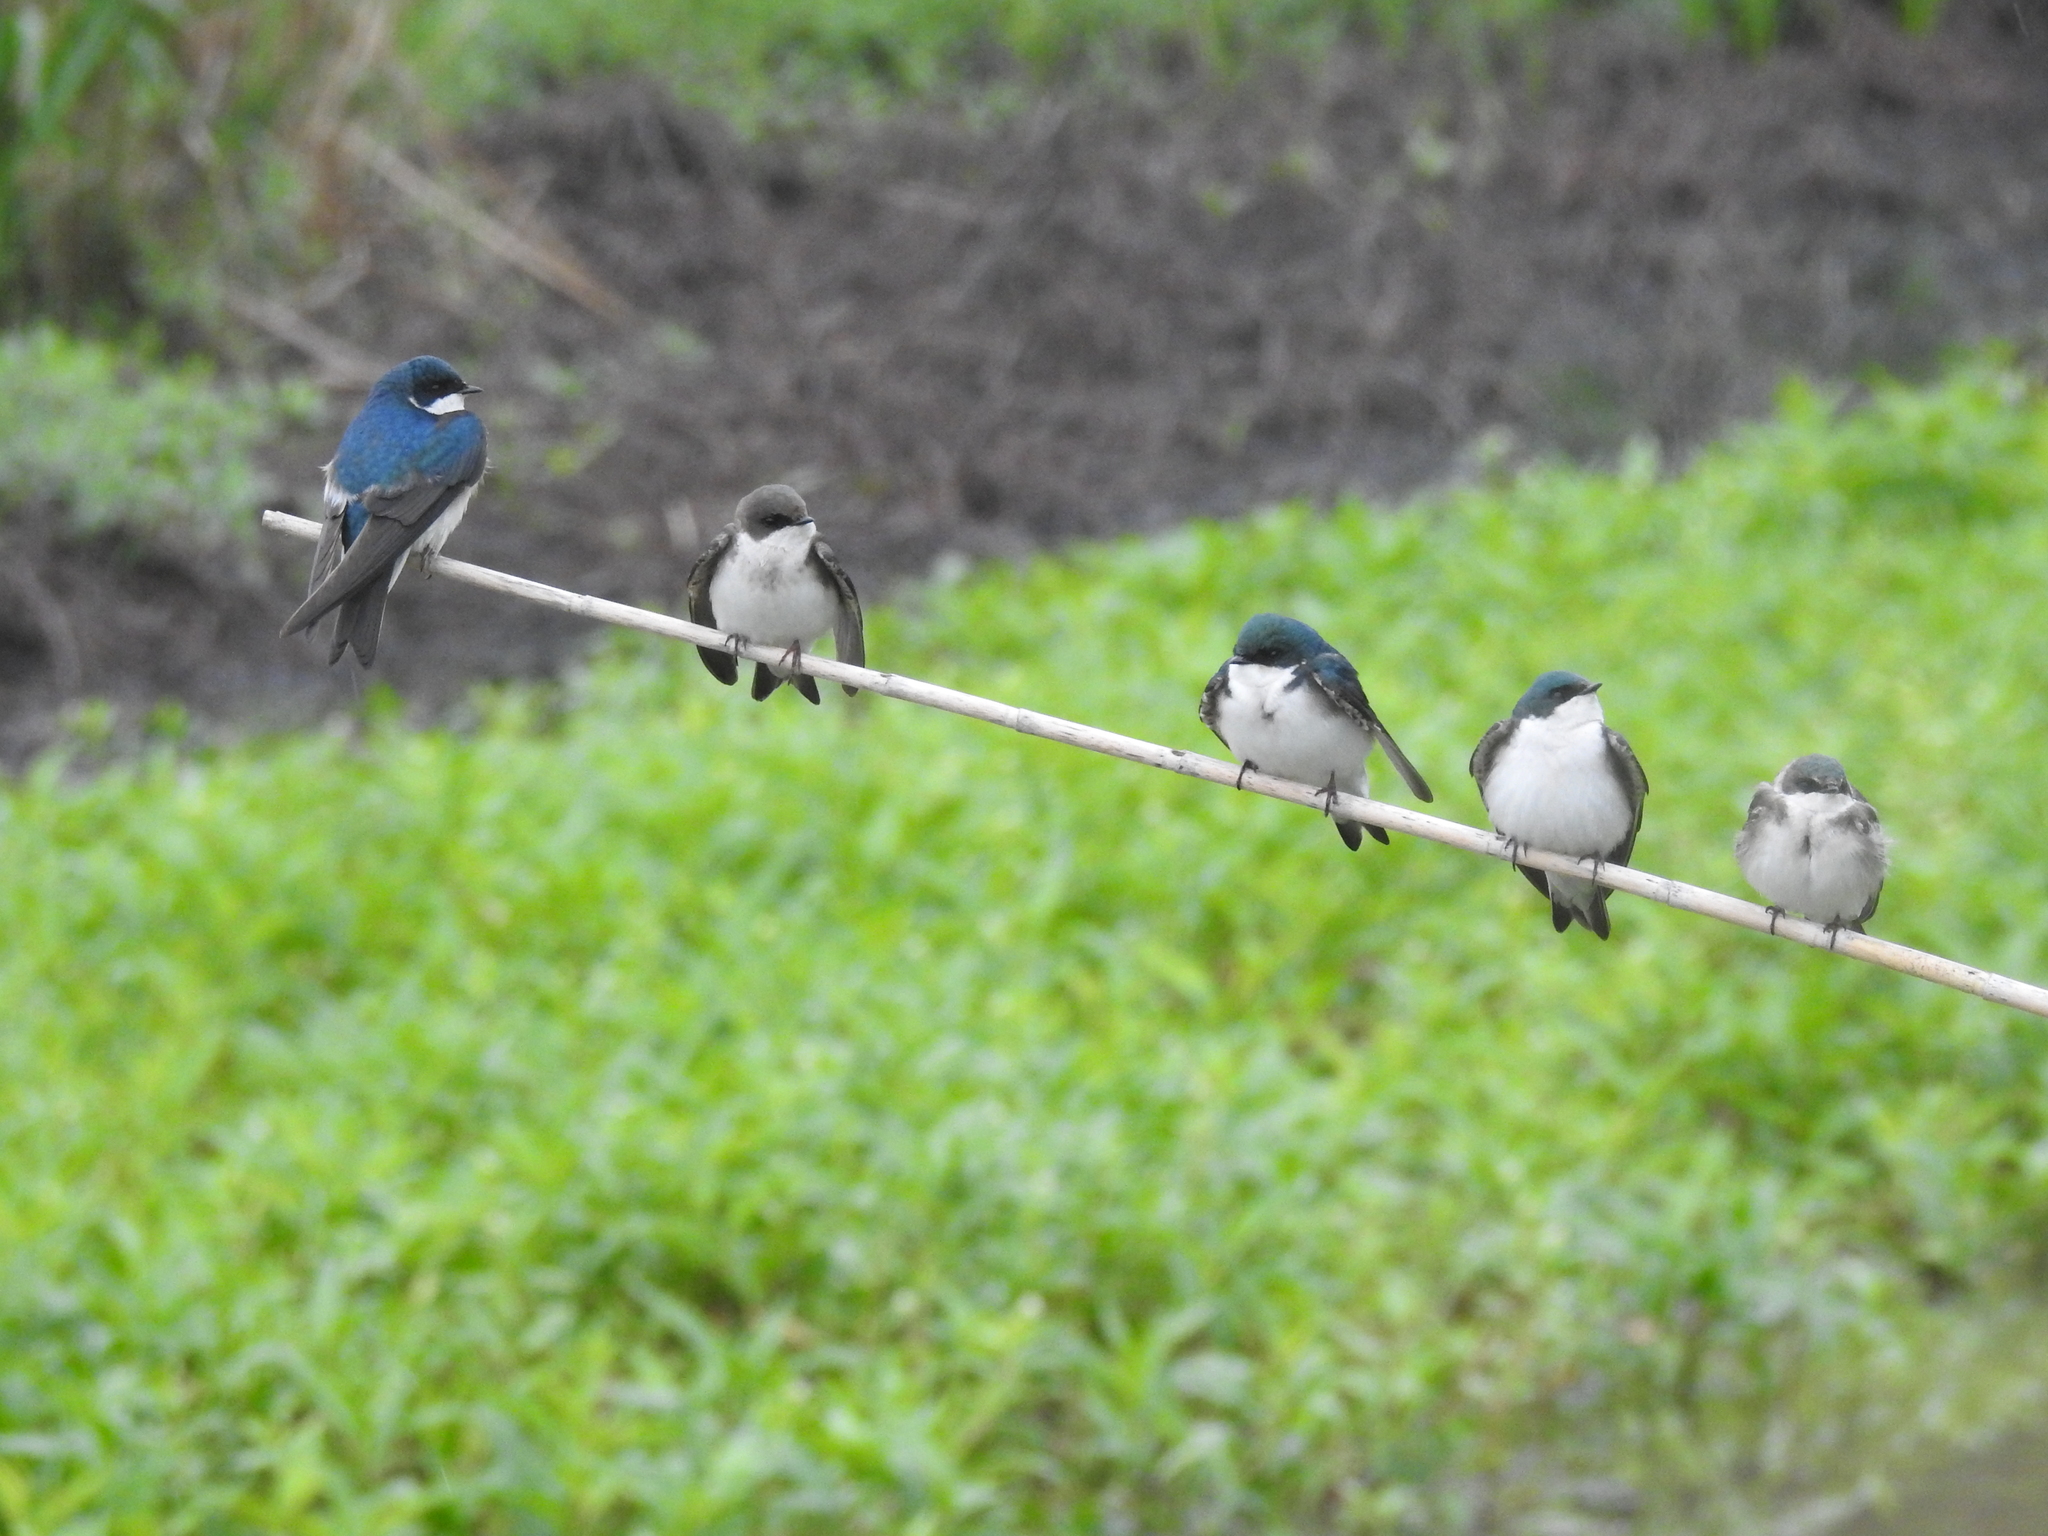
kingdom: Animalia
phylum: Chordata
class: Aves
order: Passeriformes
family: Hirundinidae
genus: Tachycineta
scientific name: Tachycineta bicolor
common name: Tree swallow
